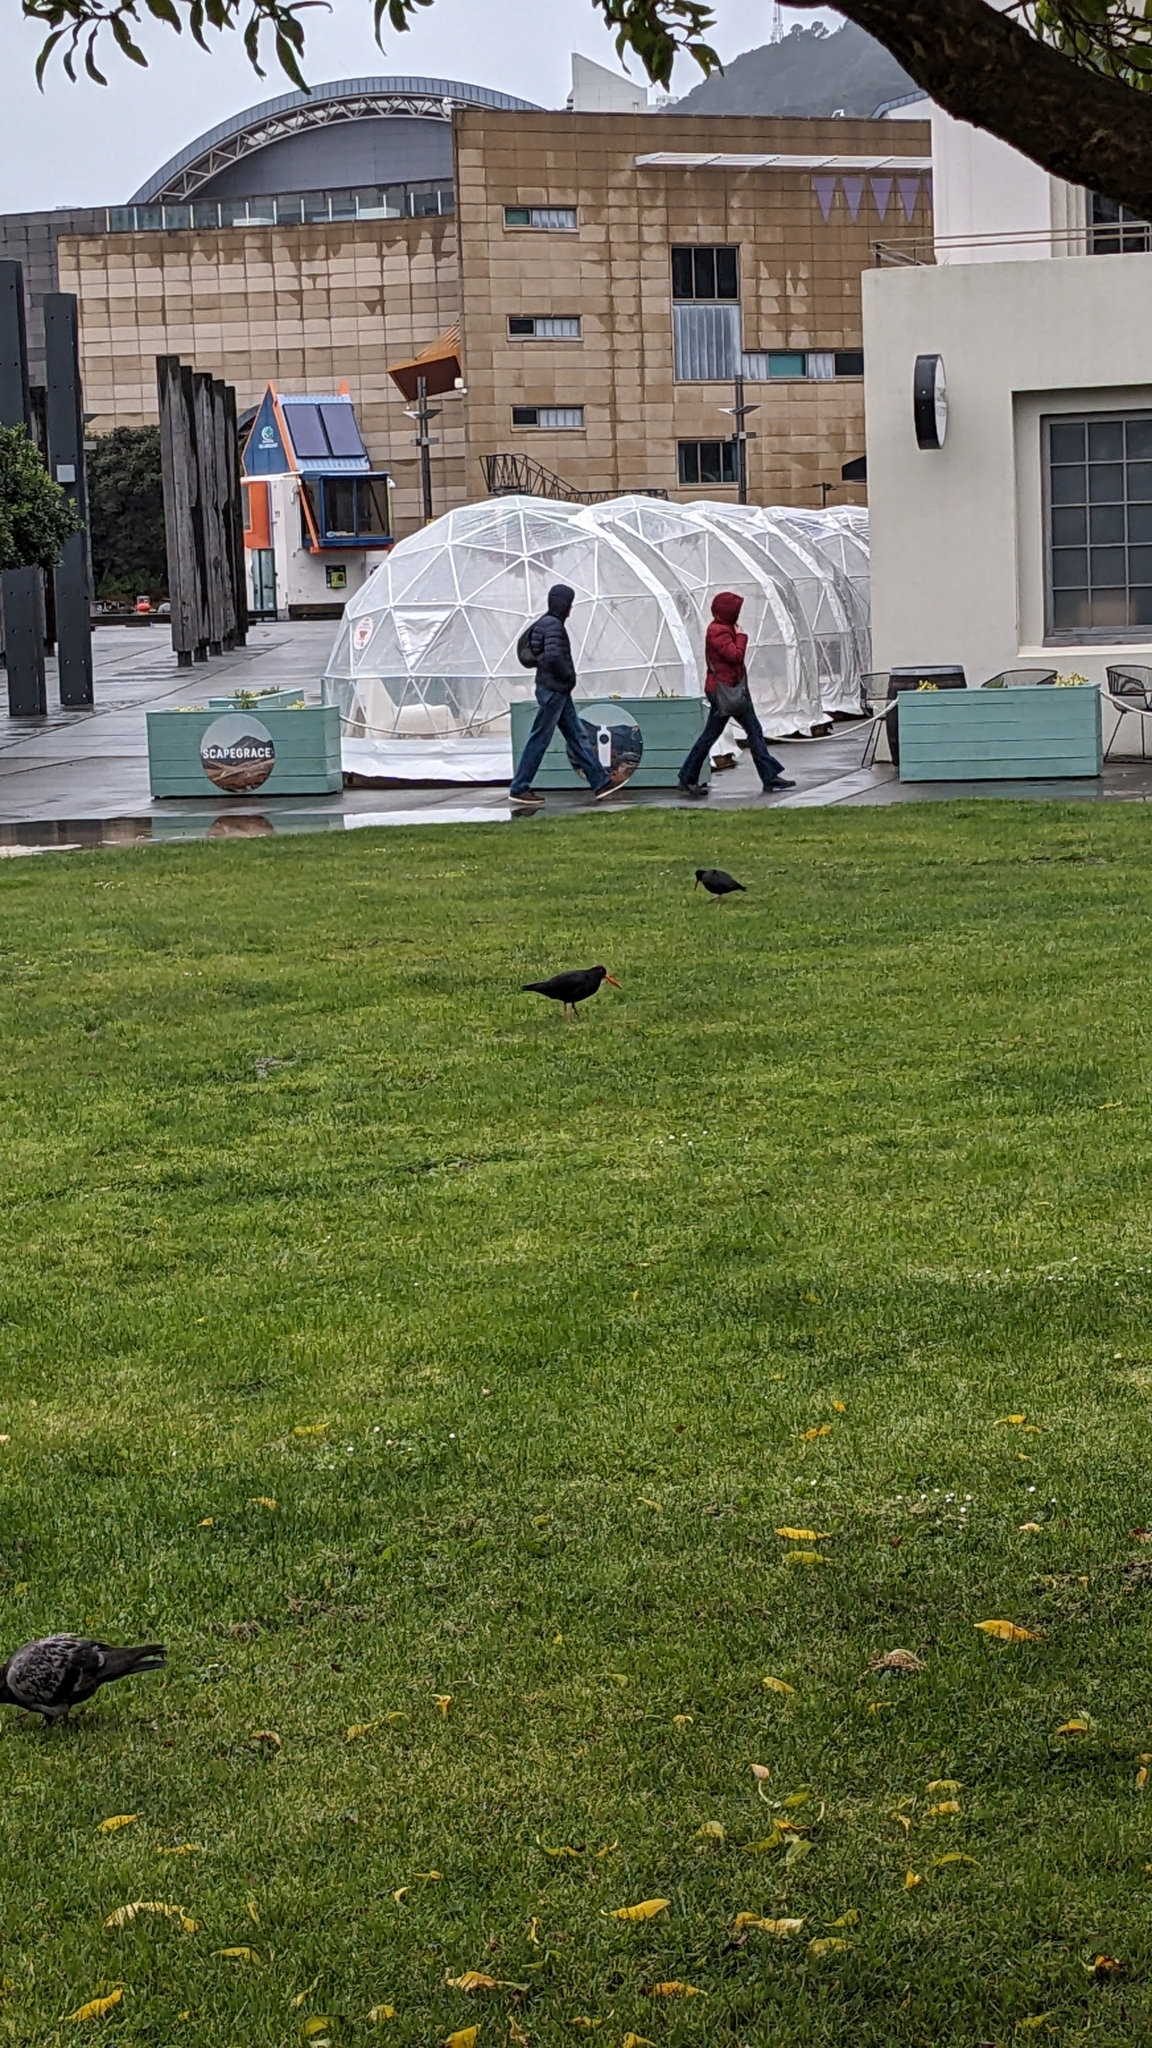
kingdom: Animalia
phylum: Chordata
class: Aves
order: Charadriiformes
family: Haematopodidae
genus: Haematopus
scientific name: Haematopus unicolor
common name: Variable oystercatcher
